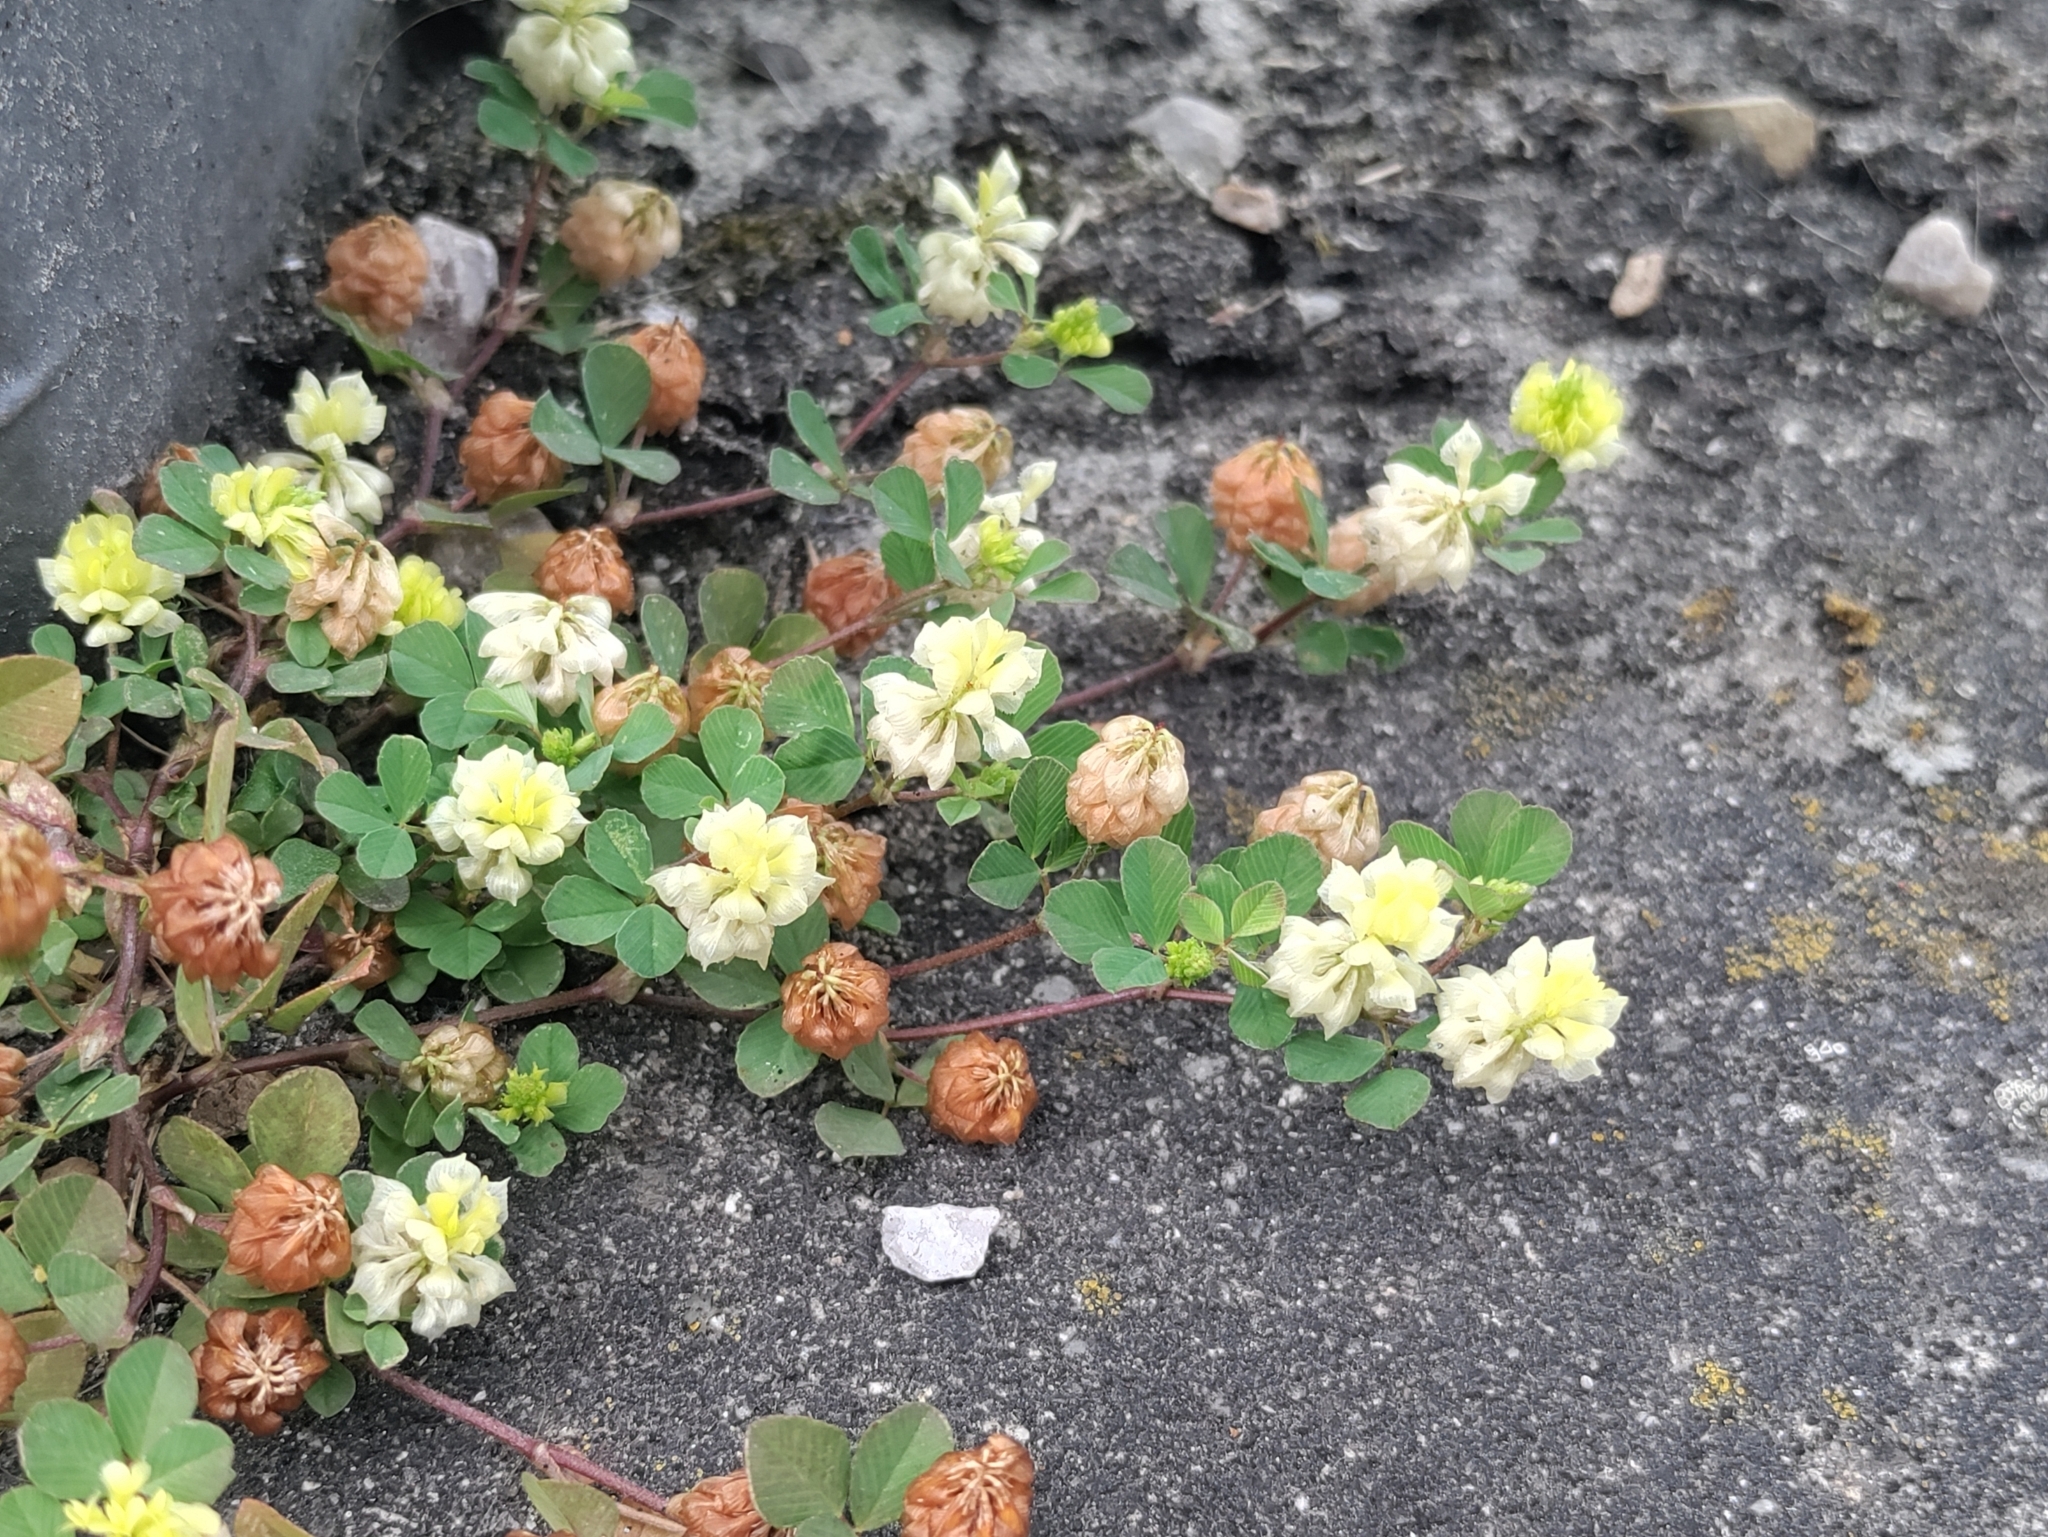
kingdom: Plantae
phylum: Tracheophyta
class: Magnoliopsida
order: Fabales
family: Fabaceae
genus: Trifolium
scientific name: Trifolium campestre
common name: Field clover
